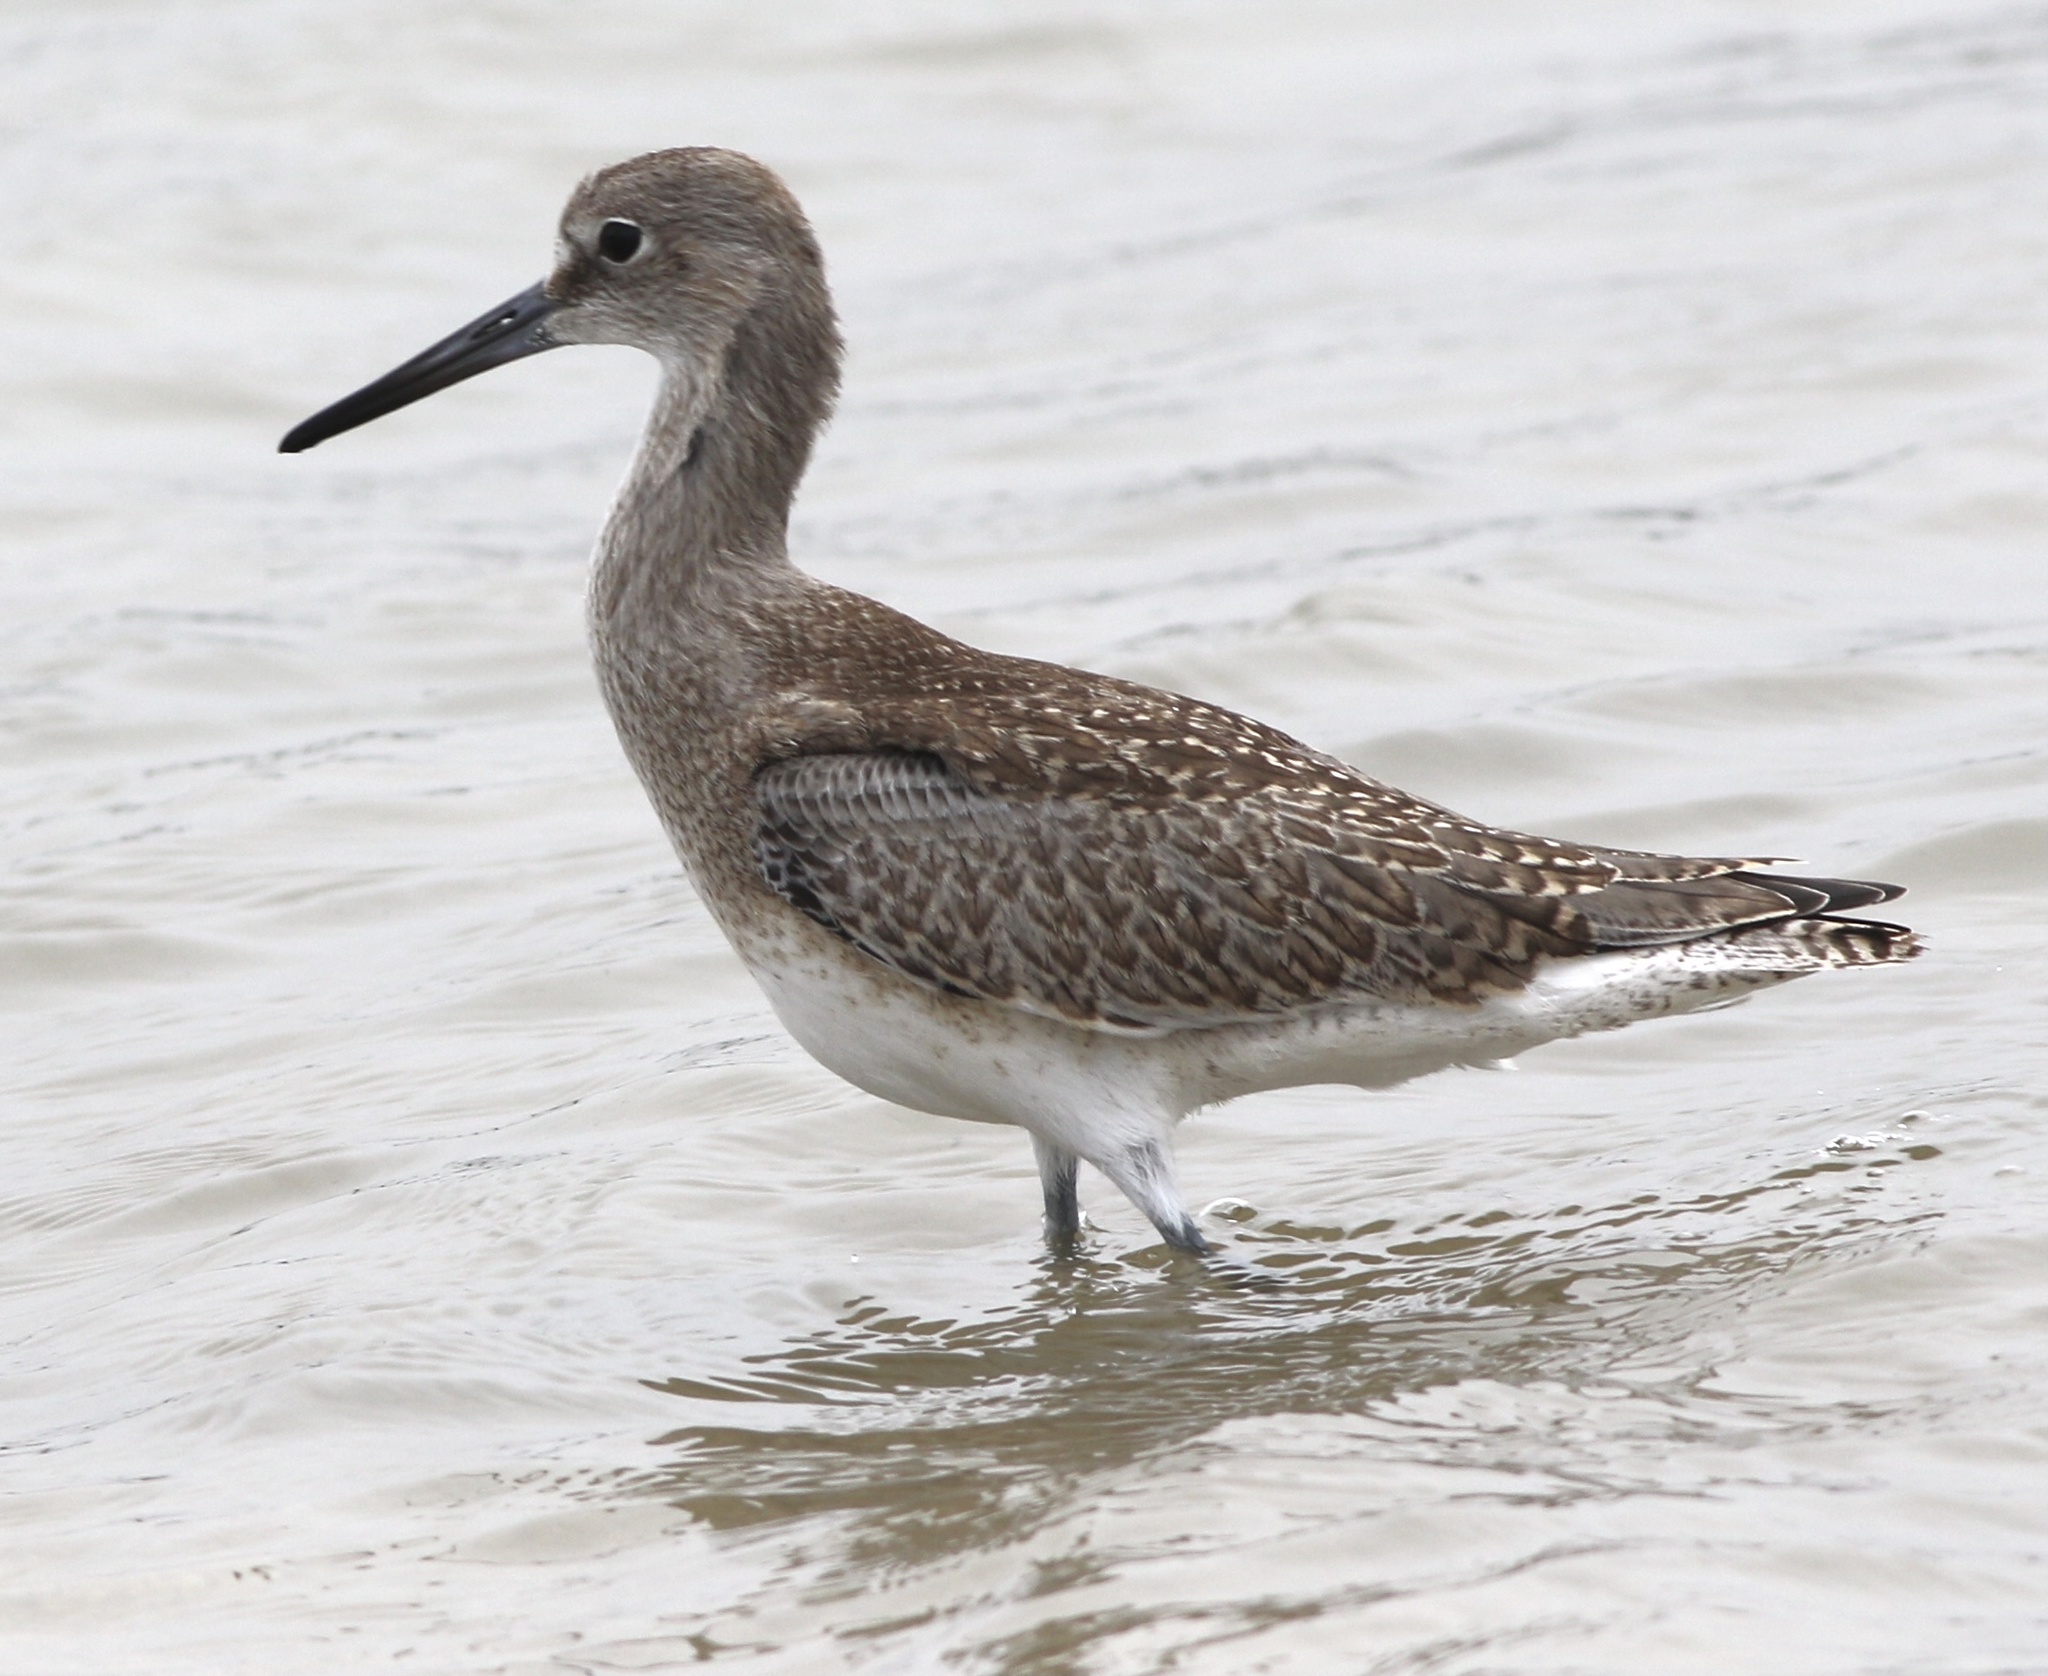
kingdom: Animalia
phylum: Chordata
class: Aves
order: Charadriiformes
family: Scolopacidae
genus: Tringa
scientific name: Tringa semipalmata
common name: Willet
